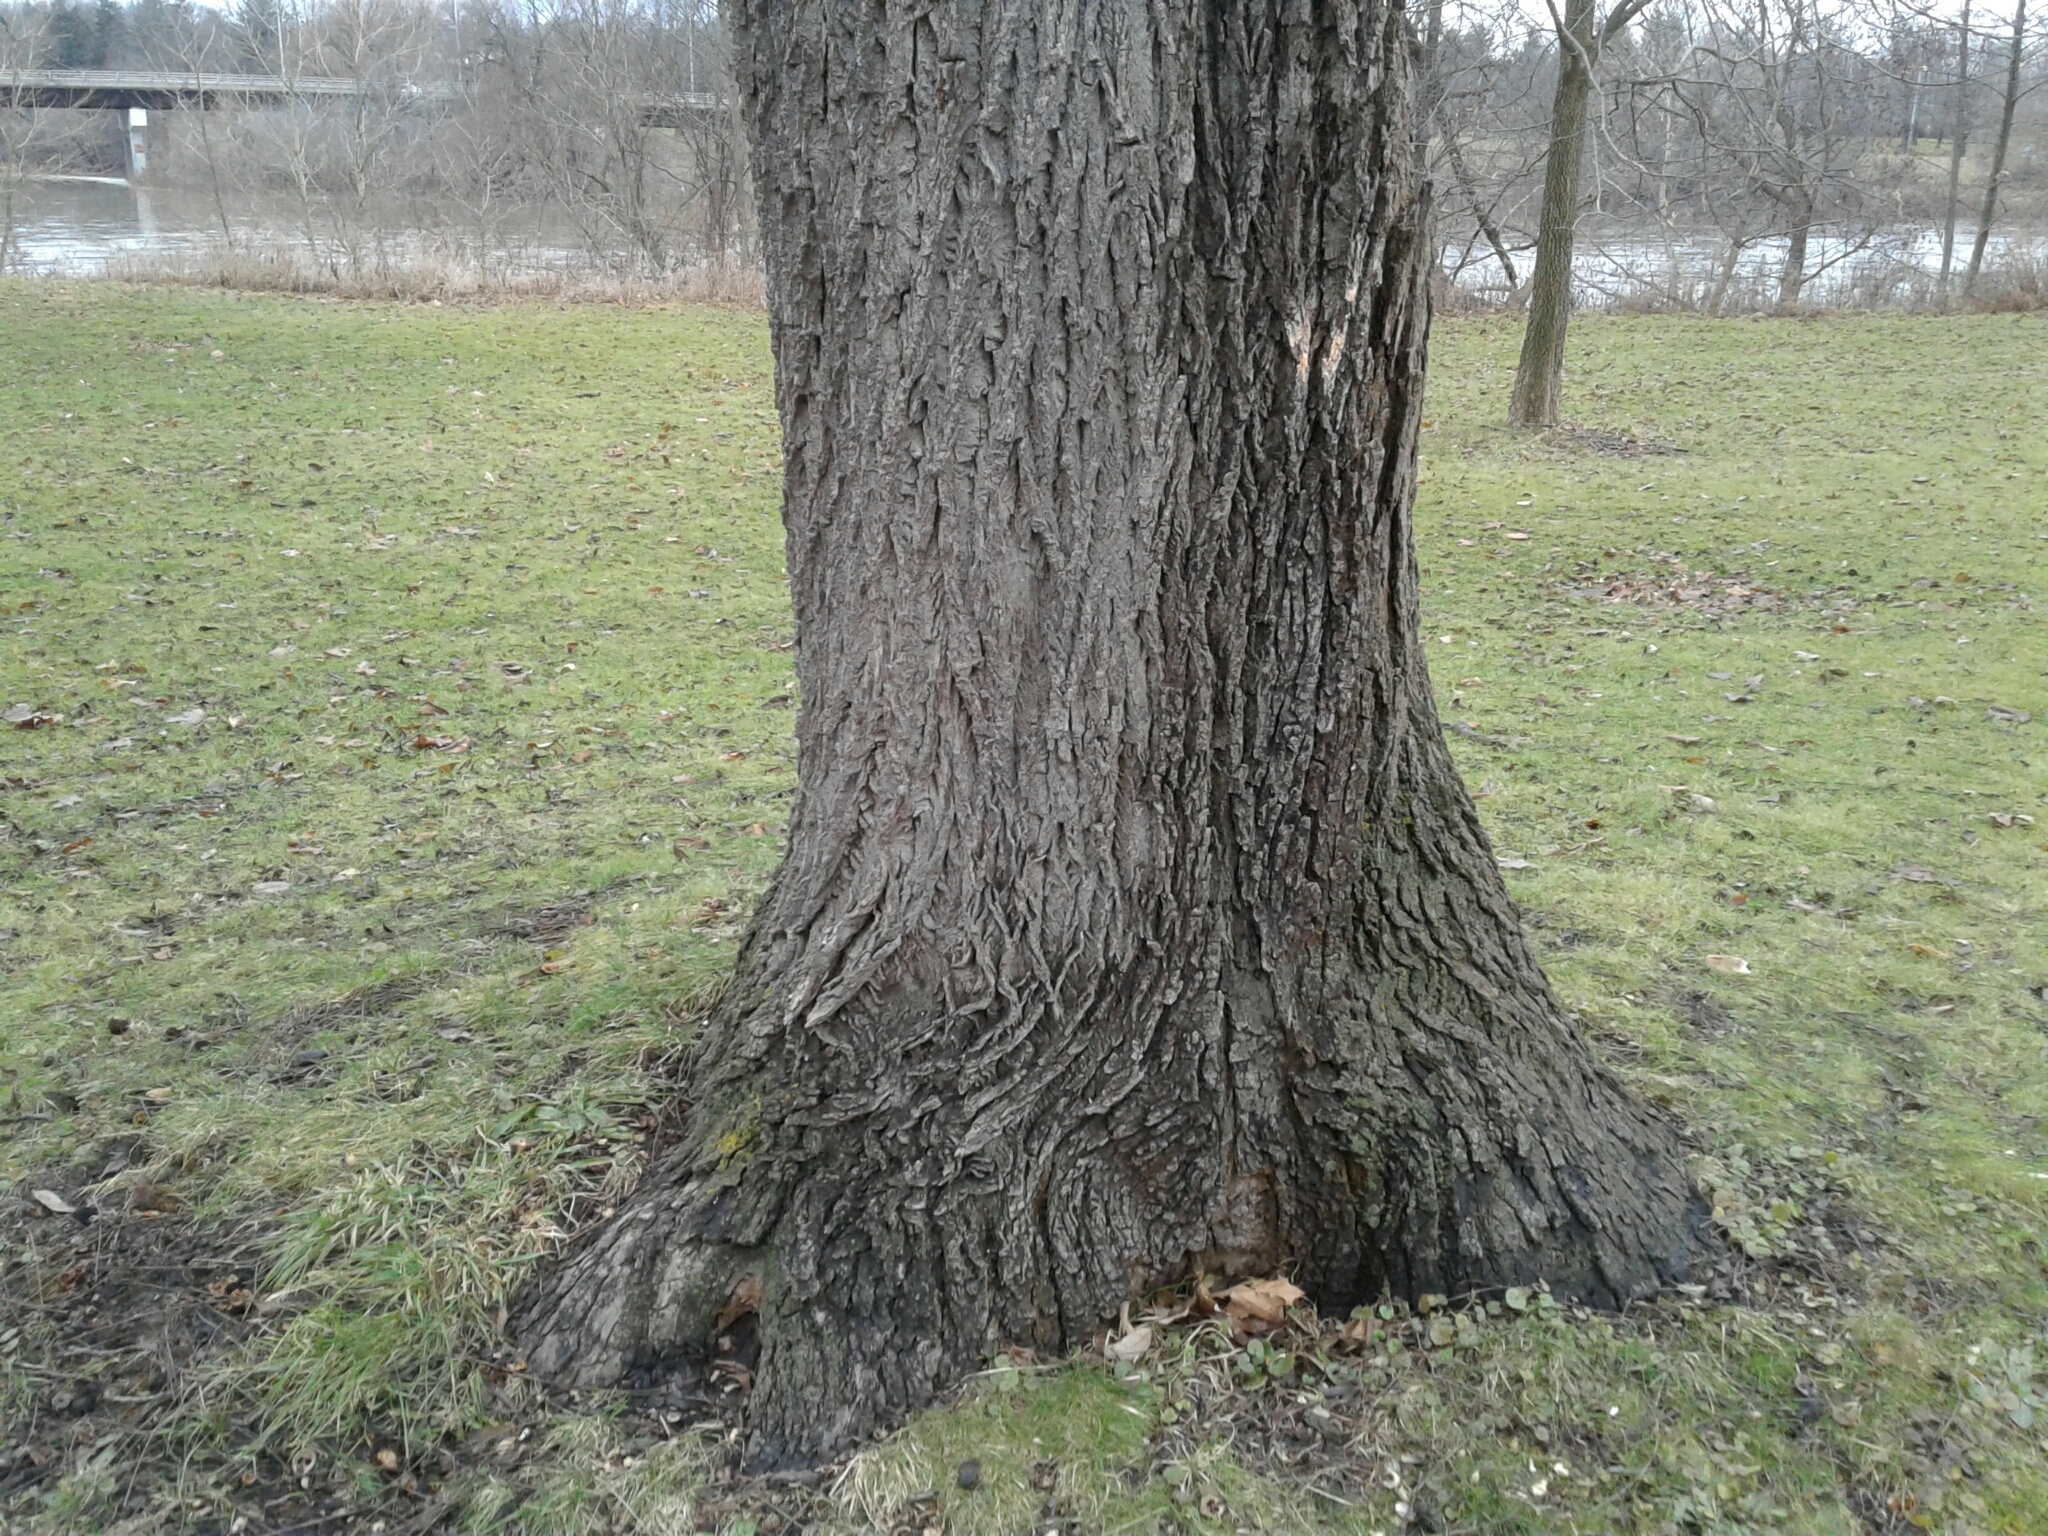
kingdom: Plantae
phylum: Tracheophyta
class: Magnoliopsida
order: Fagales
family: Juglandaceae
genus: Juglans
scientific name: Juglans nigra
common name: Black walnut
